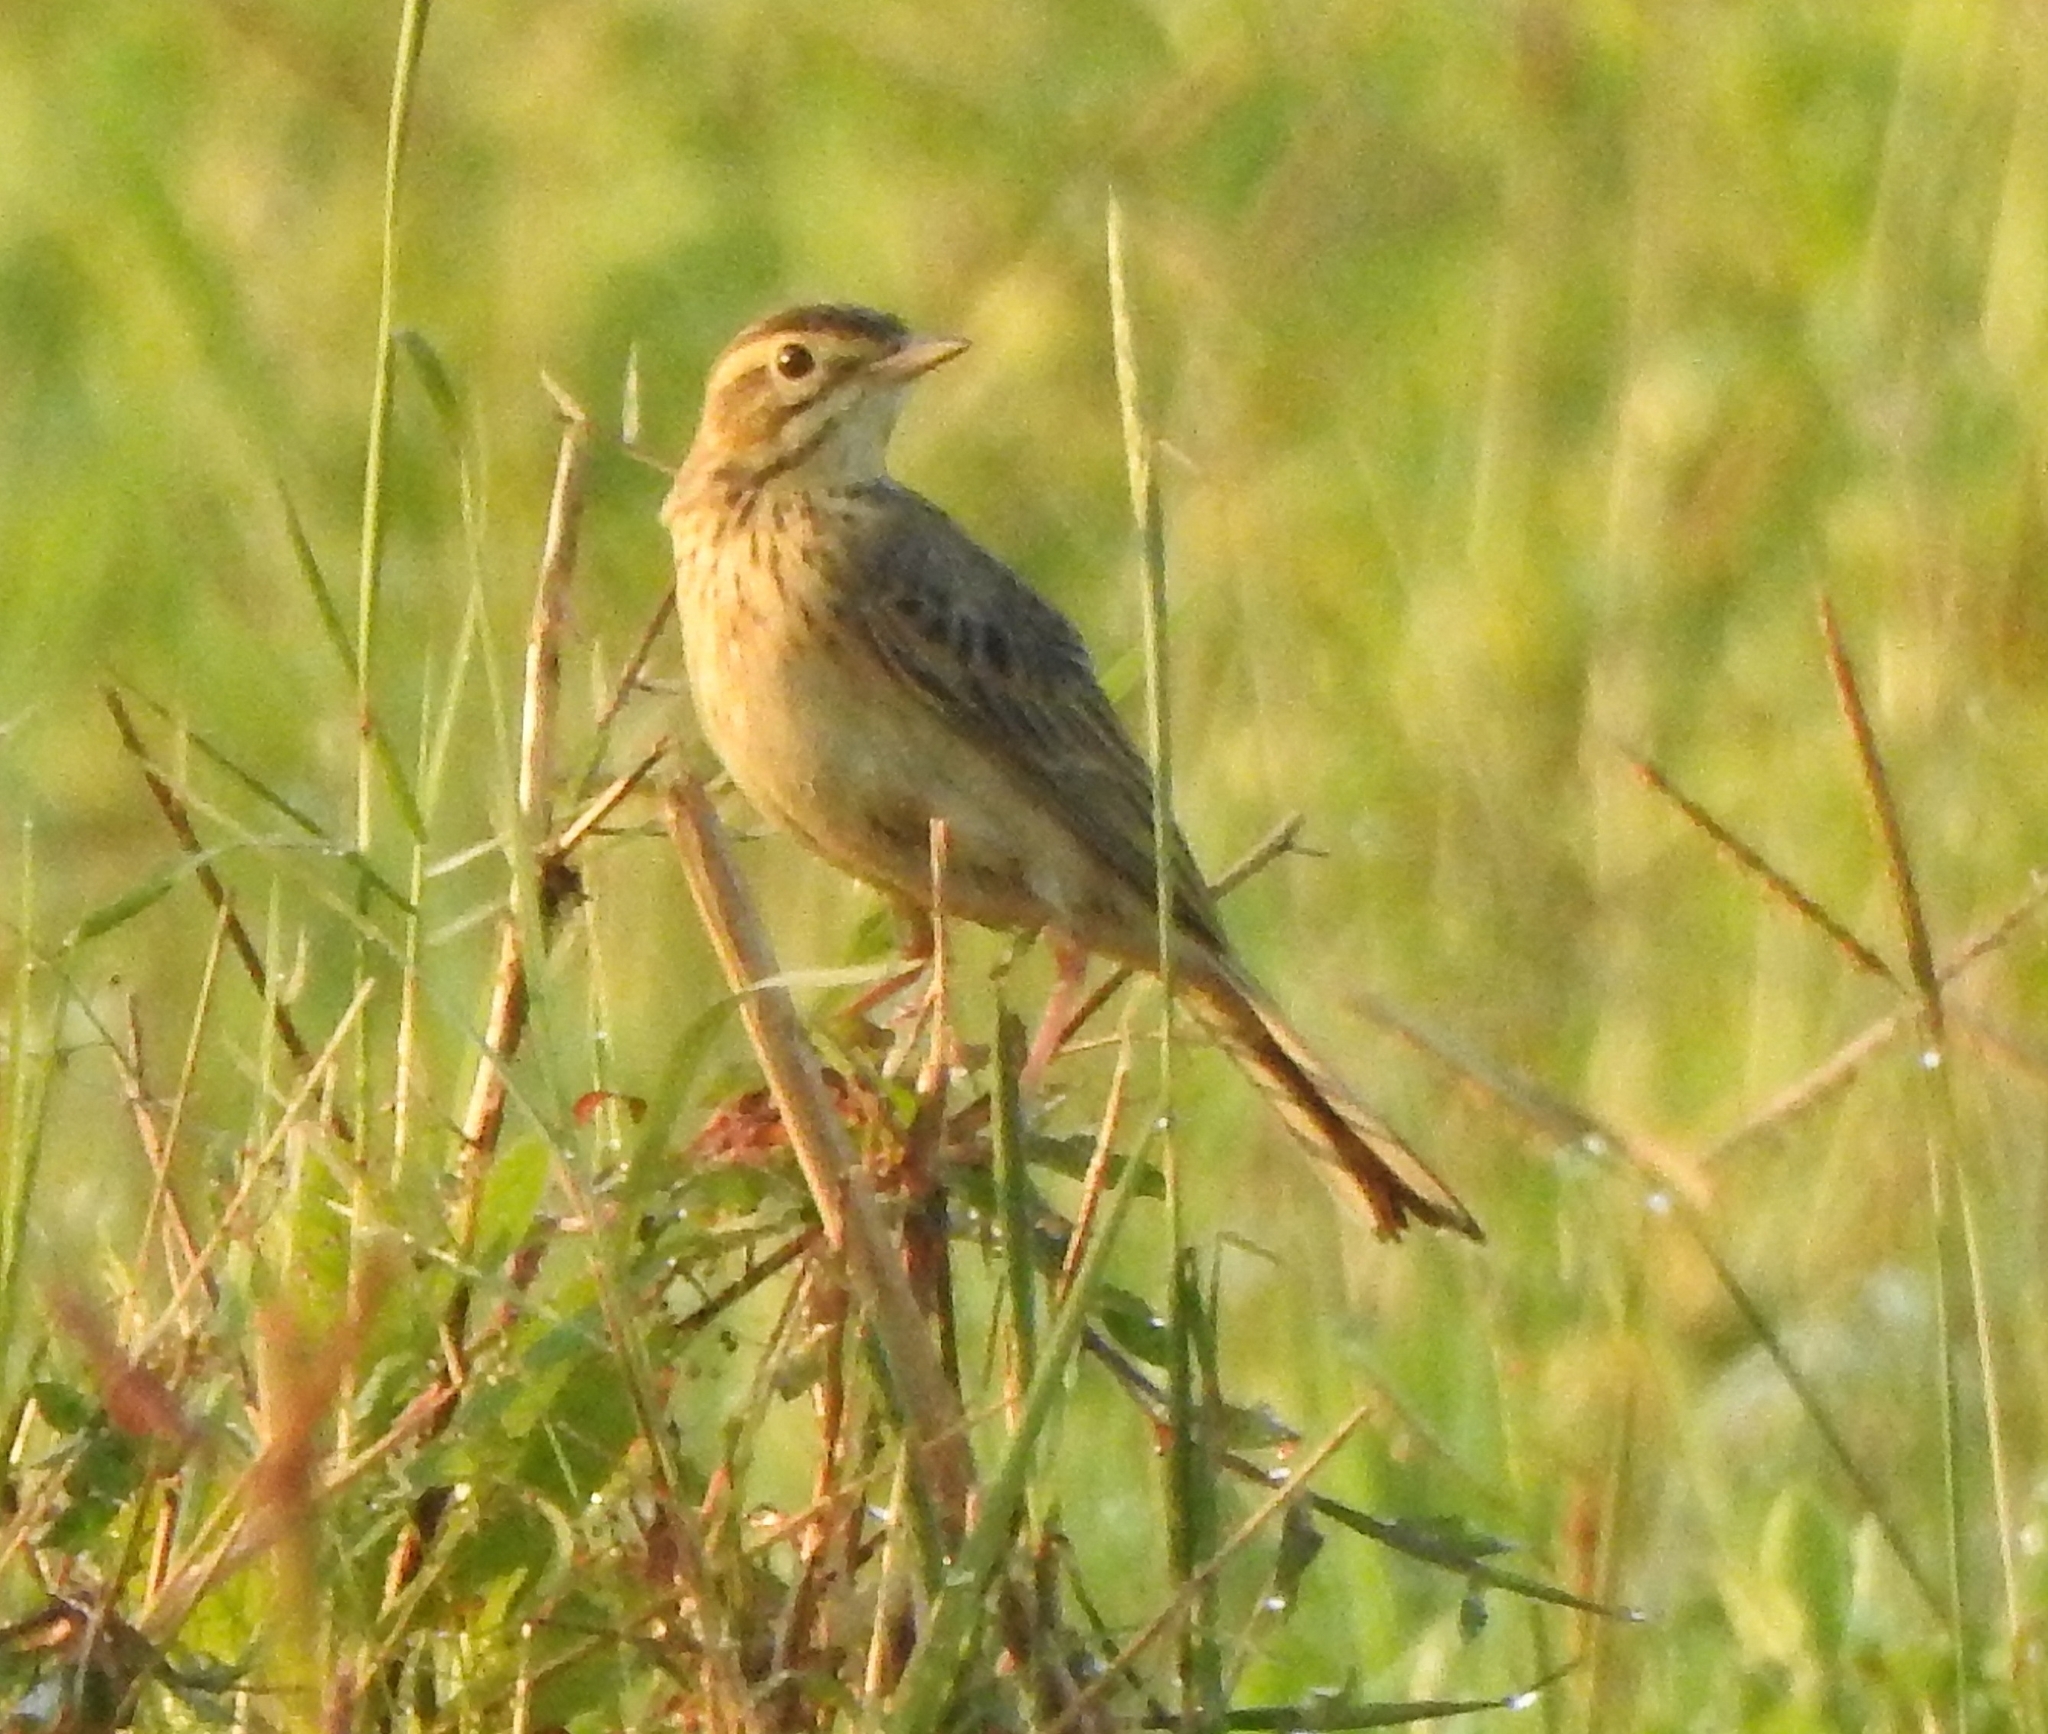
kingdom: Animalia
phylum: Chordata
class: Aves
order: Passeriformes
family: Motacillidae
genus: Anthus
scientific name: Anthus richardi
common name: Richard's pipit
